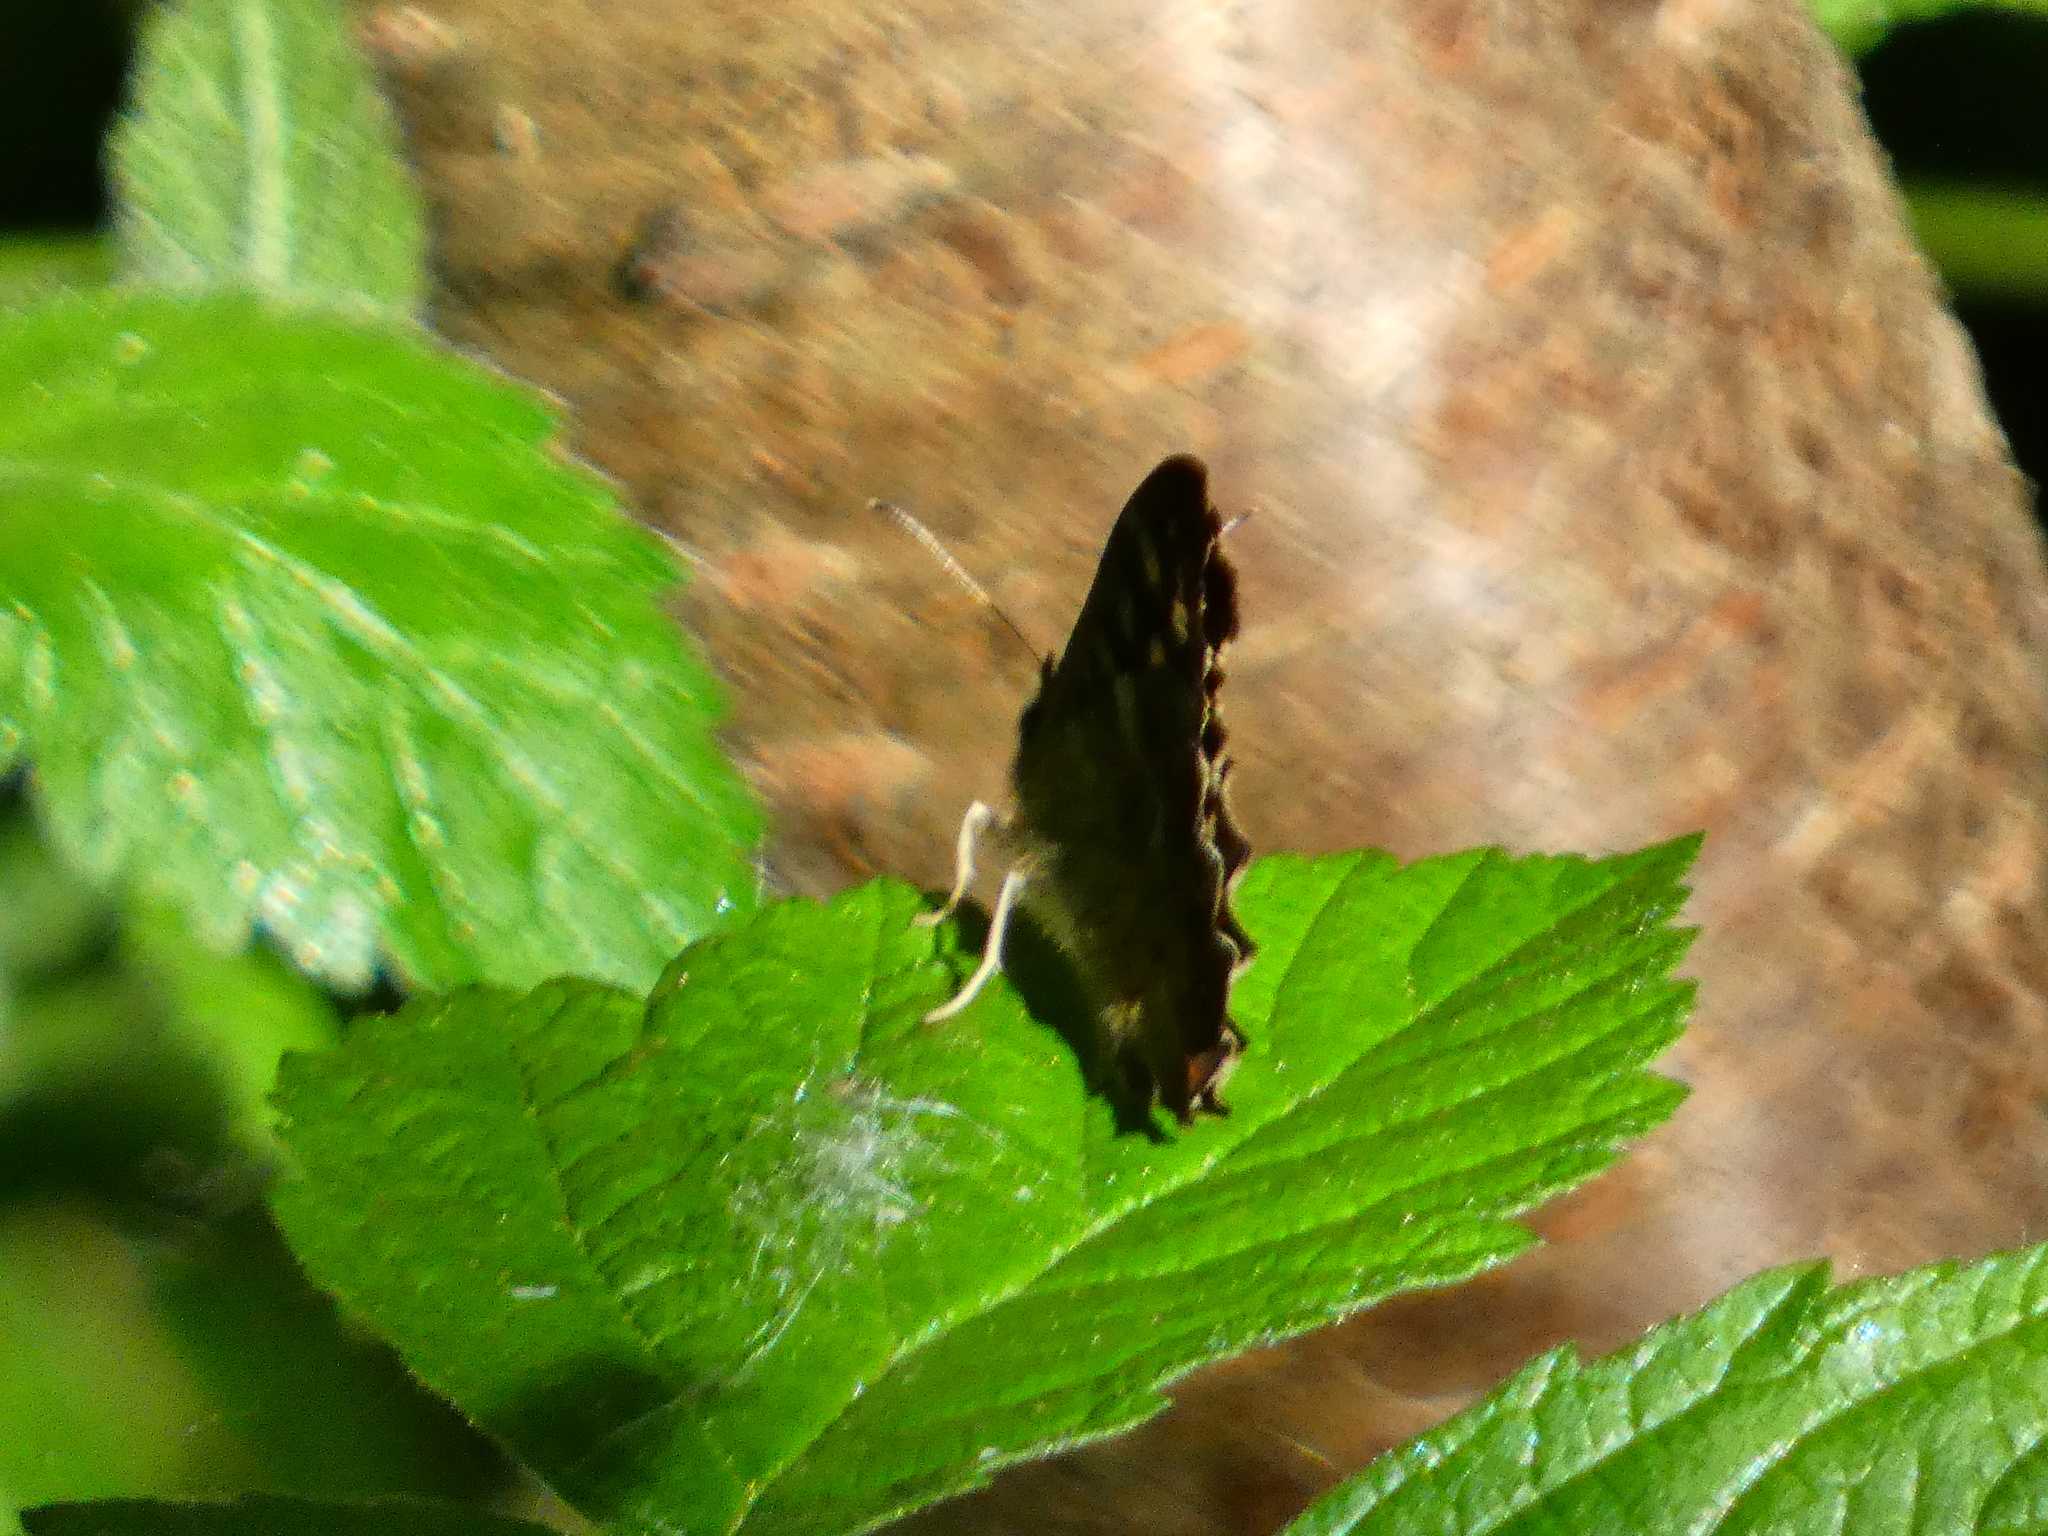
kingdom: Animalia
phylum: Arthropoda
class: Insecta
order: Lepidoptera
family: Nymphalidae
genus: Pararge
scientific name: Pararge aegeria
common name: Speckled wood
